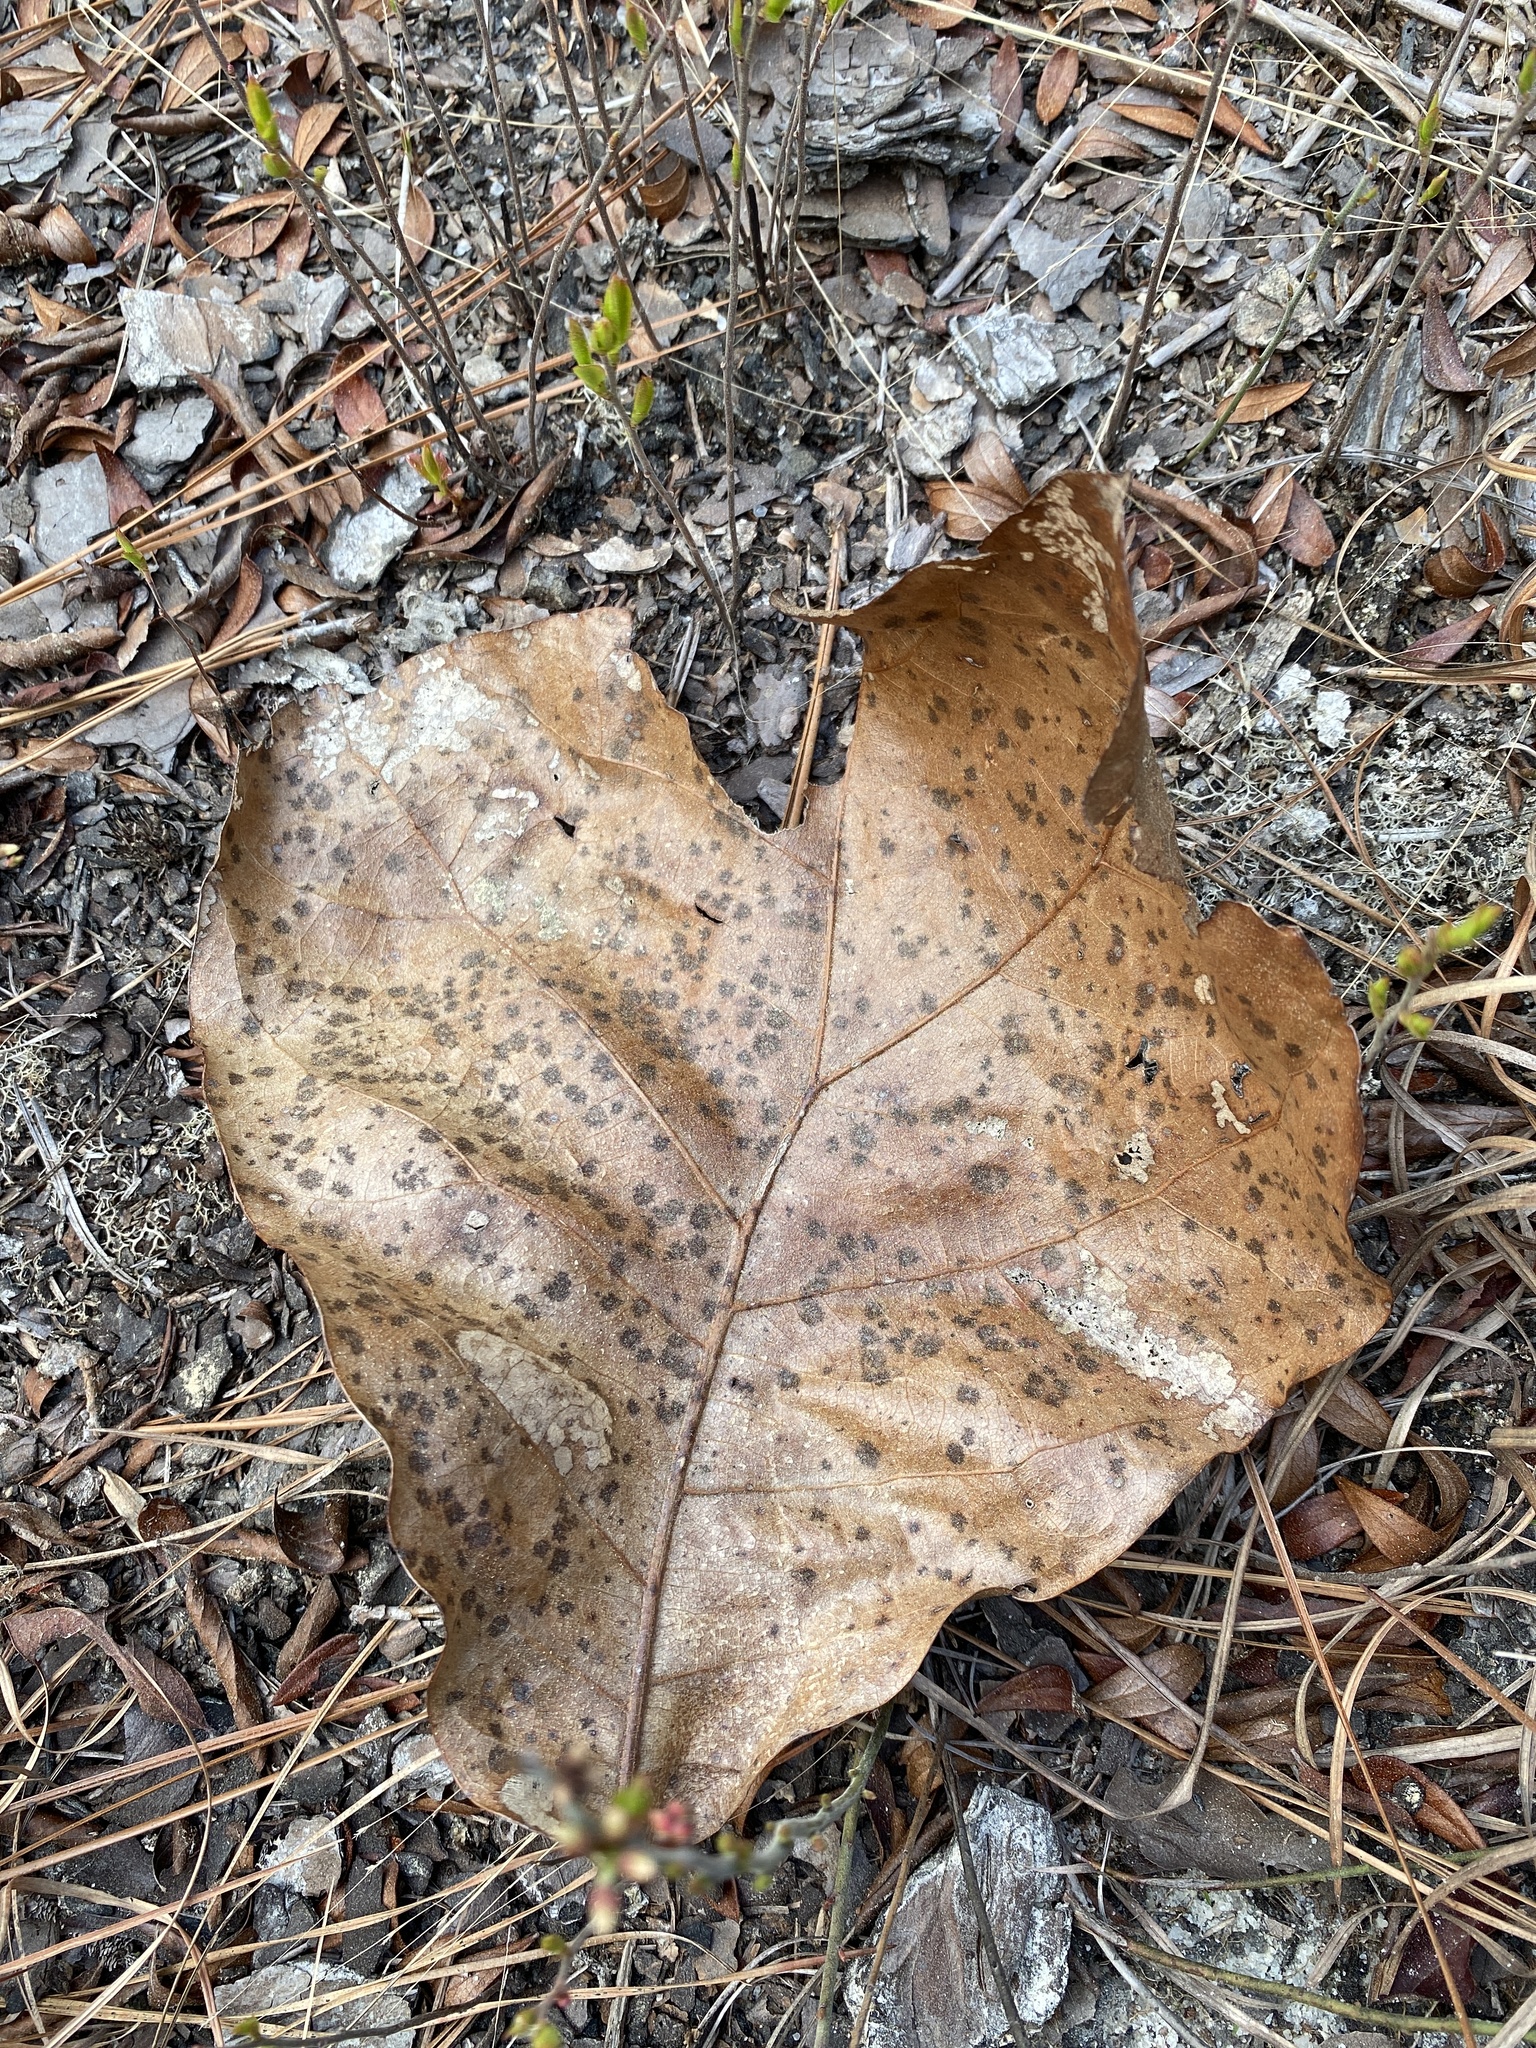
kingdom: Plantae
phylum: Tracheophyta
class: Magnoliopsida
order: Fagales
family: Fagaceae
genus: Quercus
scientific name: Quercus marilandica
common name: Blackjack oak
